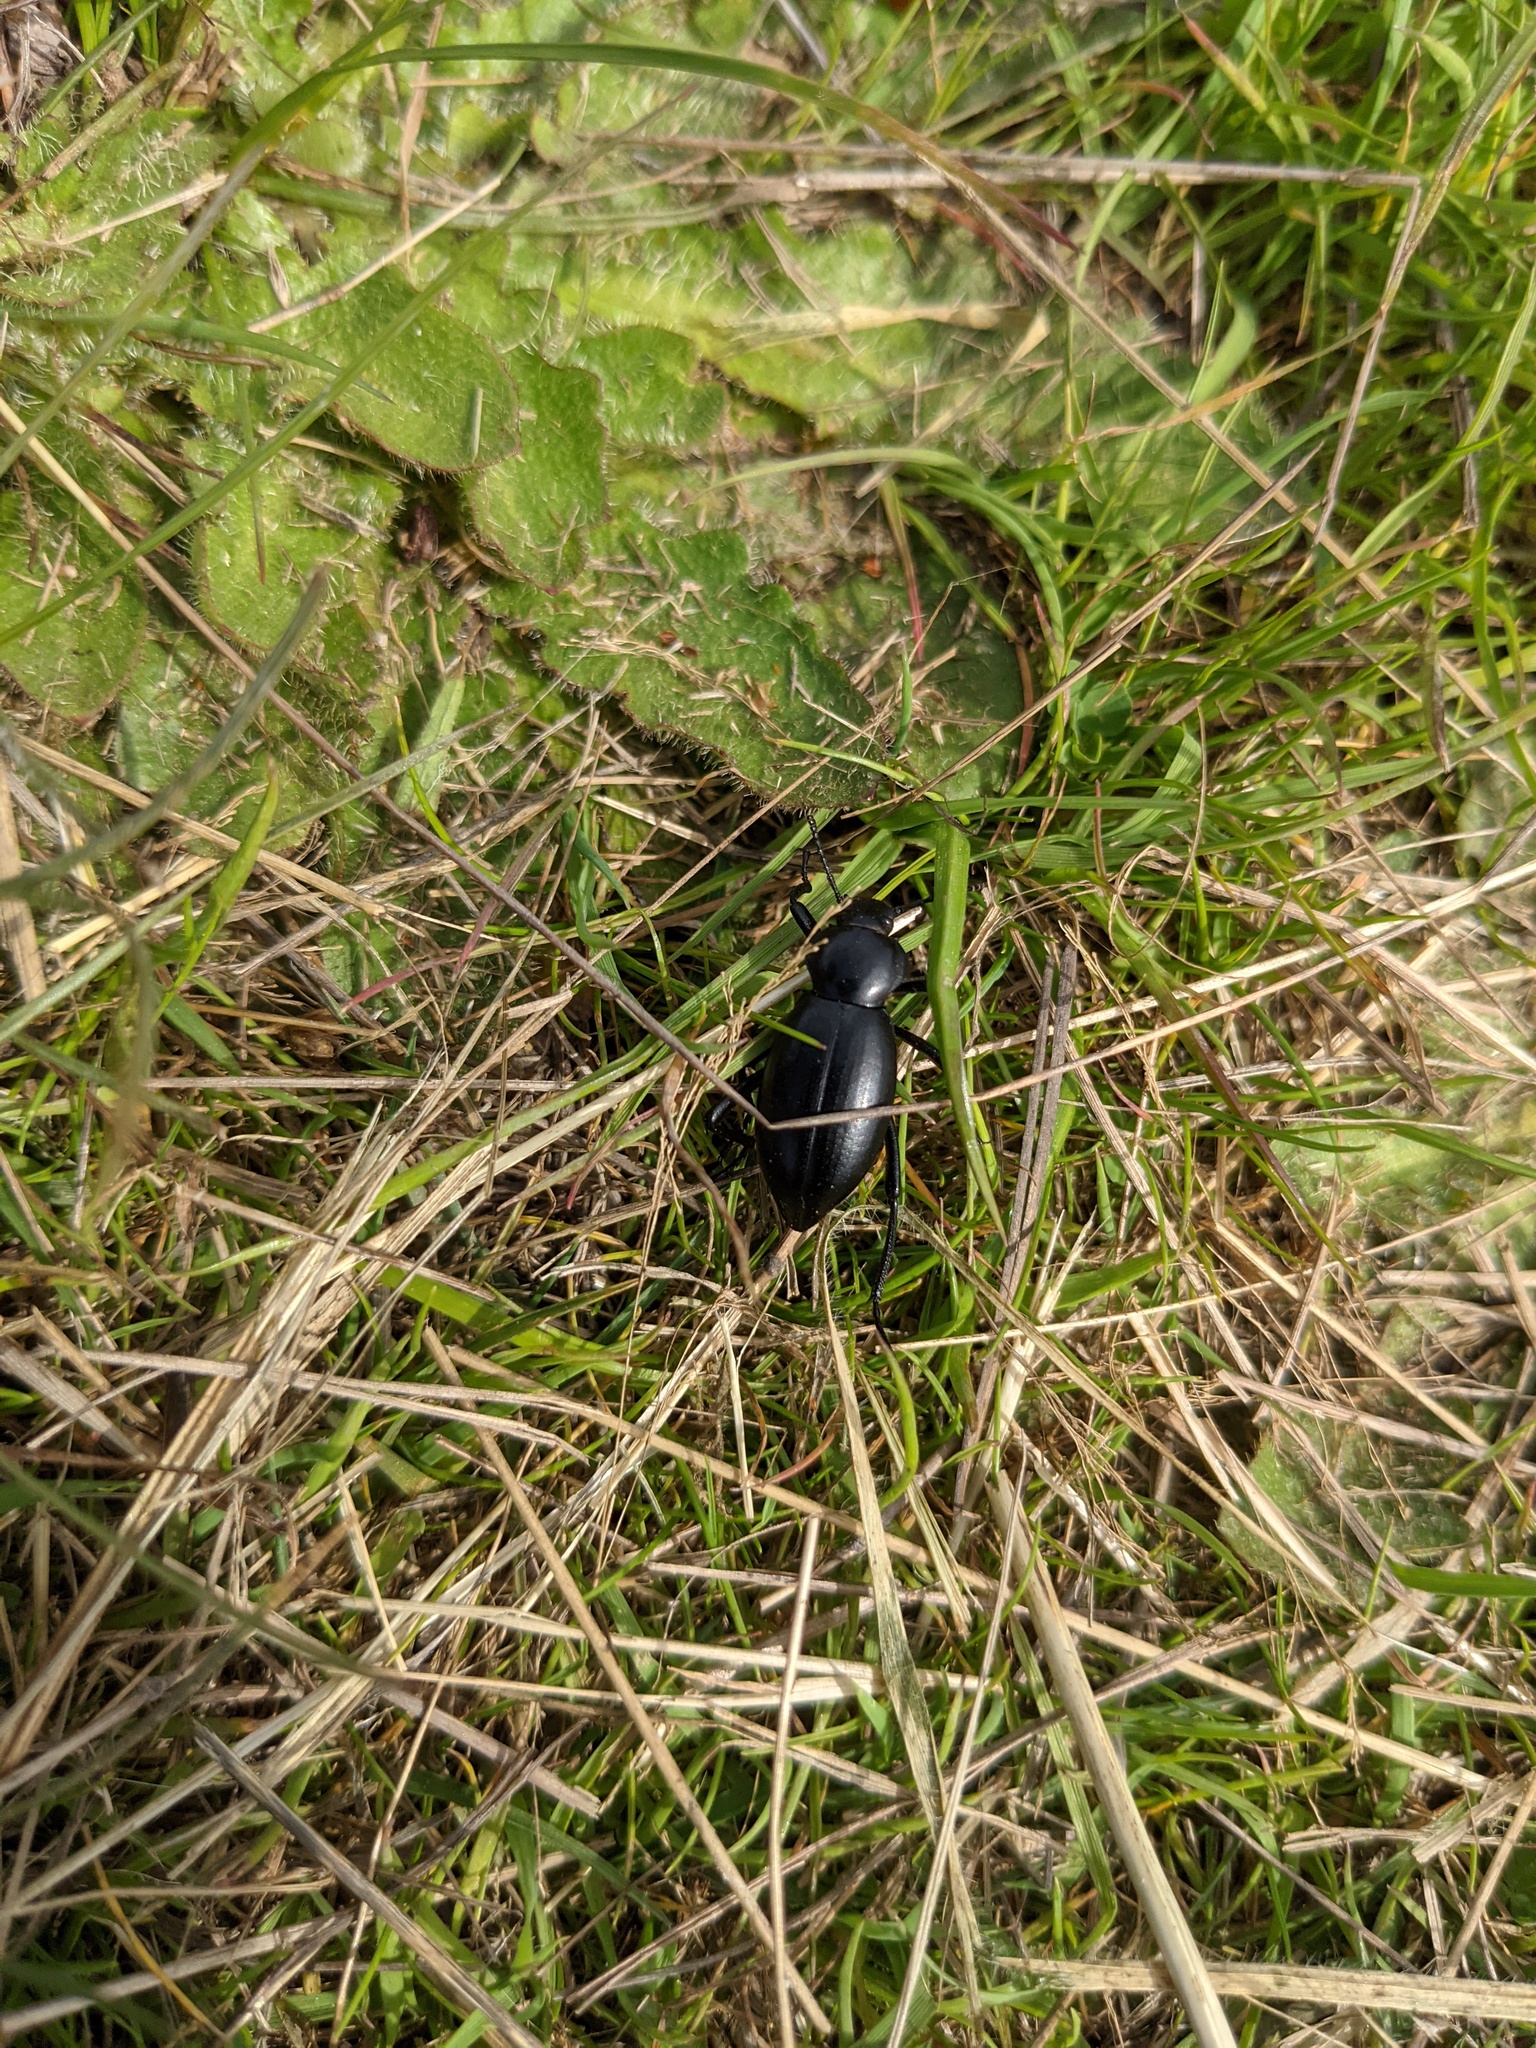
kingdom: Animalia
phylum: Arthropoda
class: Insecta
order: Coleoptera
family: Tenebrionidae
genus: Eleodes
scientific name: Eleodes dentipes
